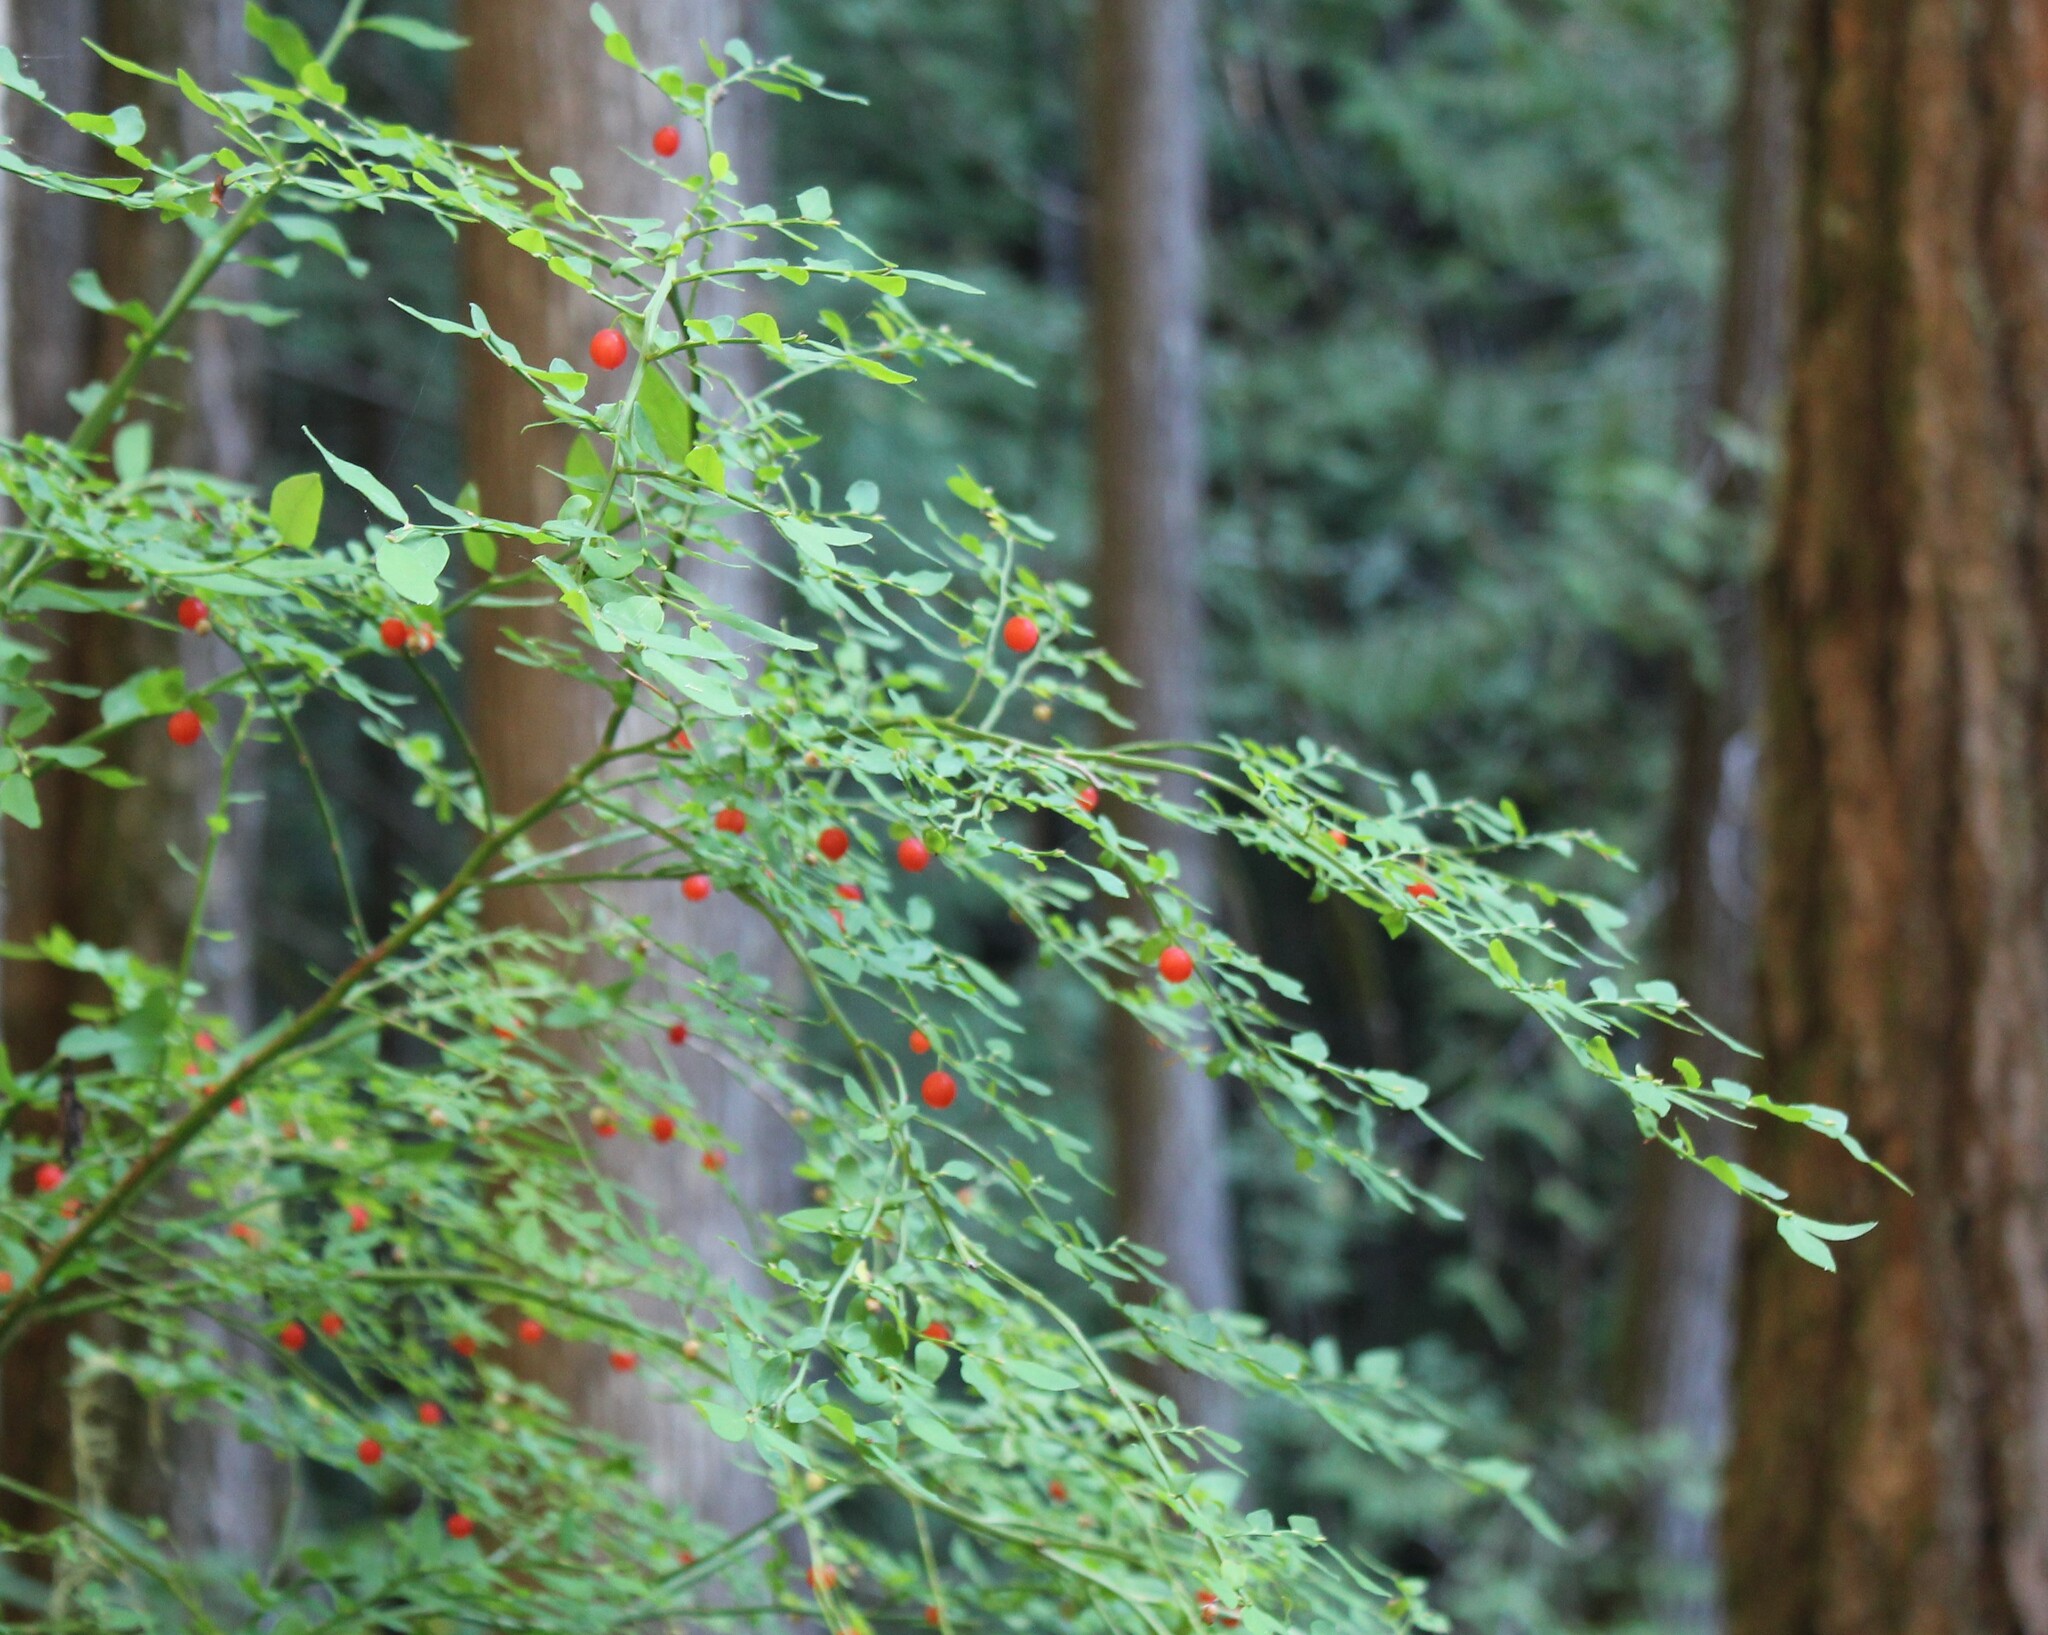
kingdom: Plantae
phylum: Tracheophyta
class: Magnoliopsida
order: Ericales
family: Ericaceae
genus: Vaccinium
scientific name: Vaccinium parvifolium
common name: Red-huckleberry
